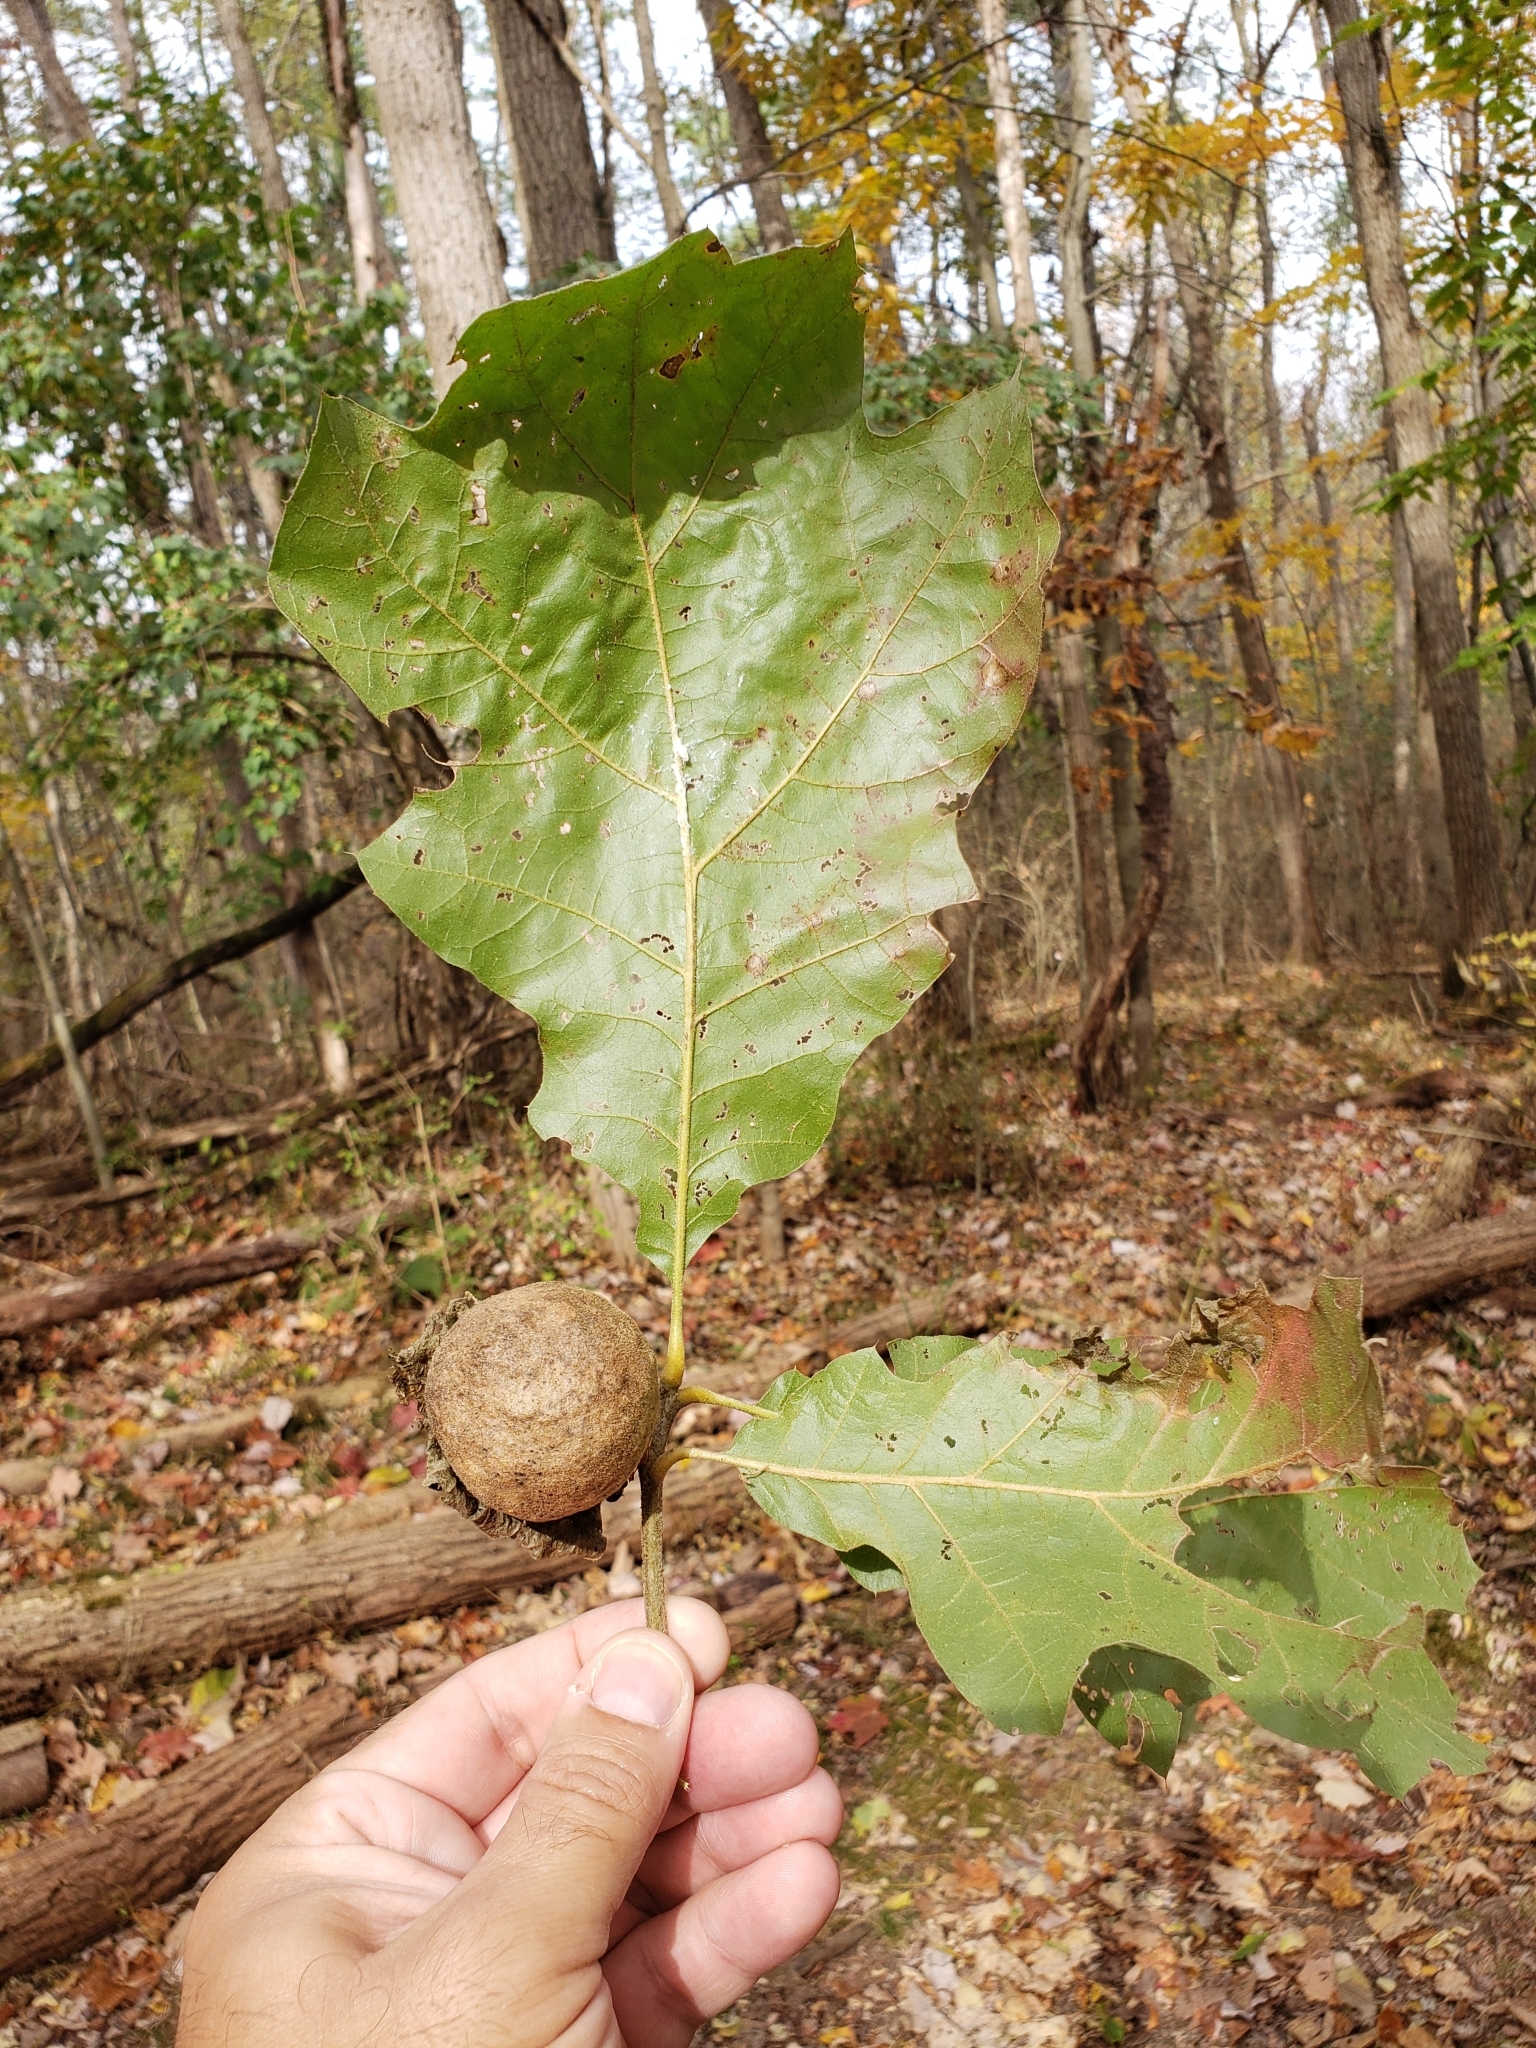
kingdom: Animalia
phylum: Arthropoda
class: Insecta
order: Hymenoptera
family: Cynipidae
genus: Amphibolips
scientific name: Amphibolips
